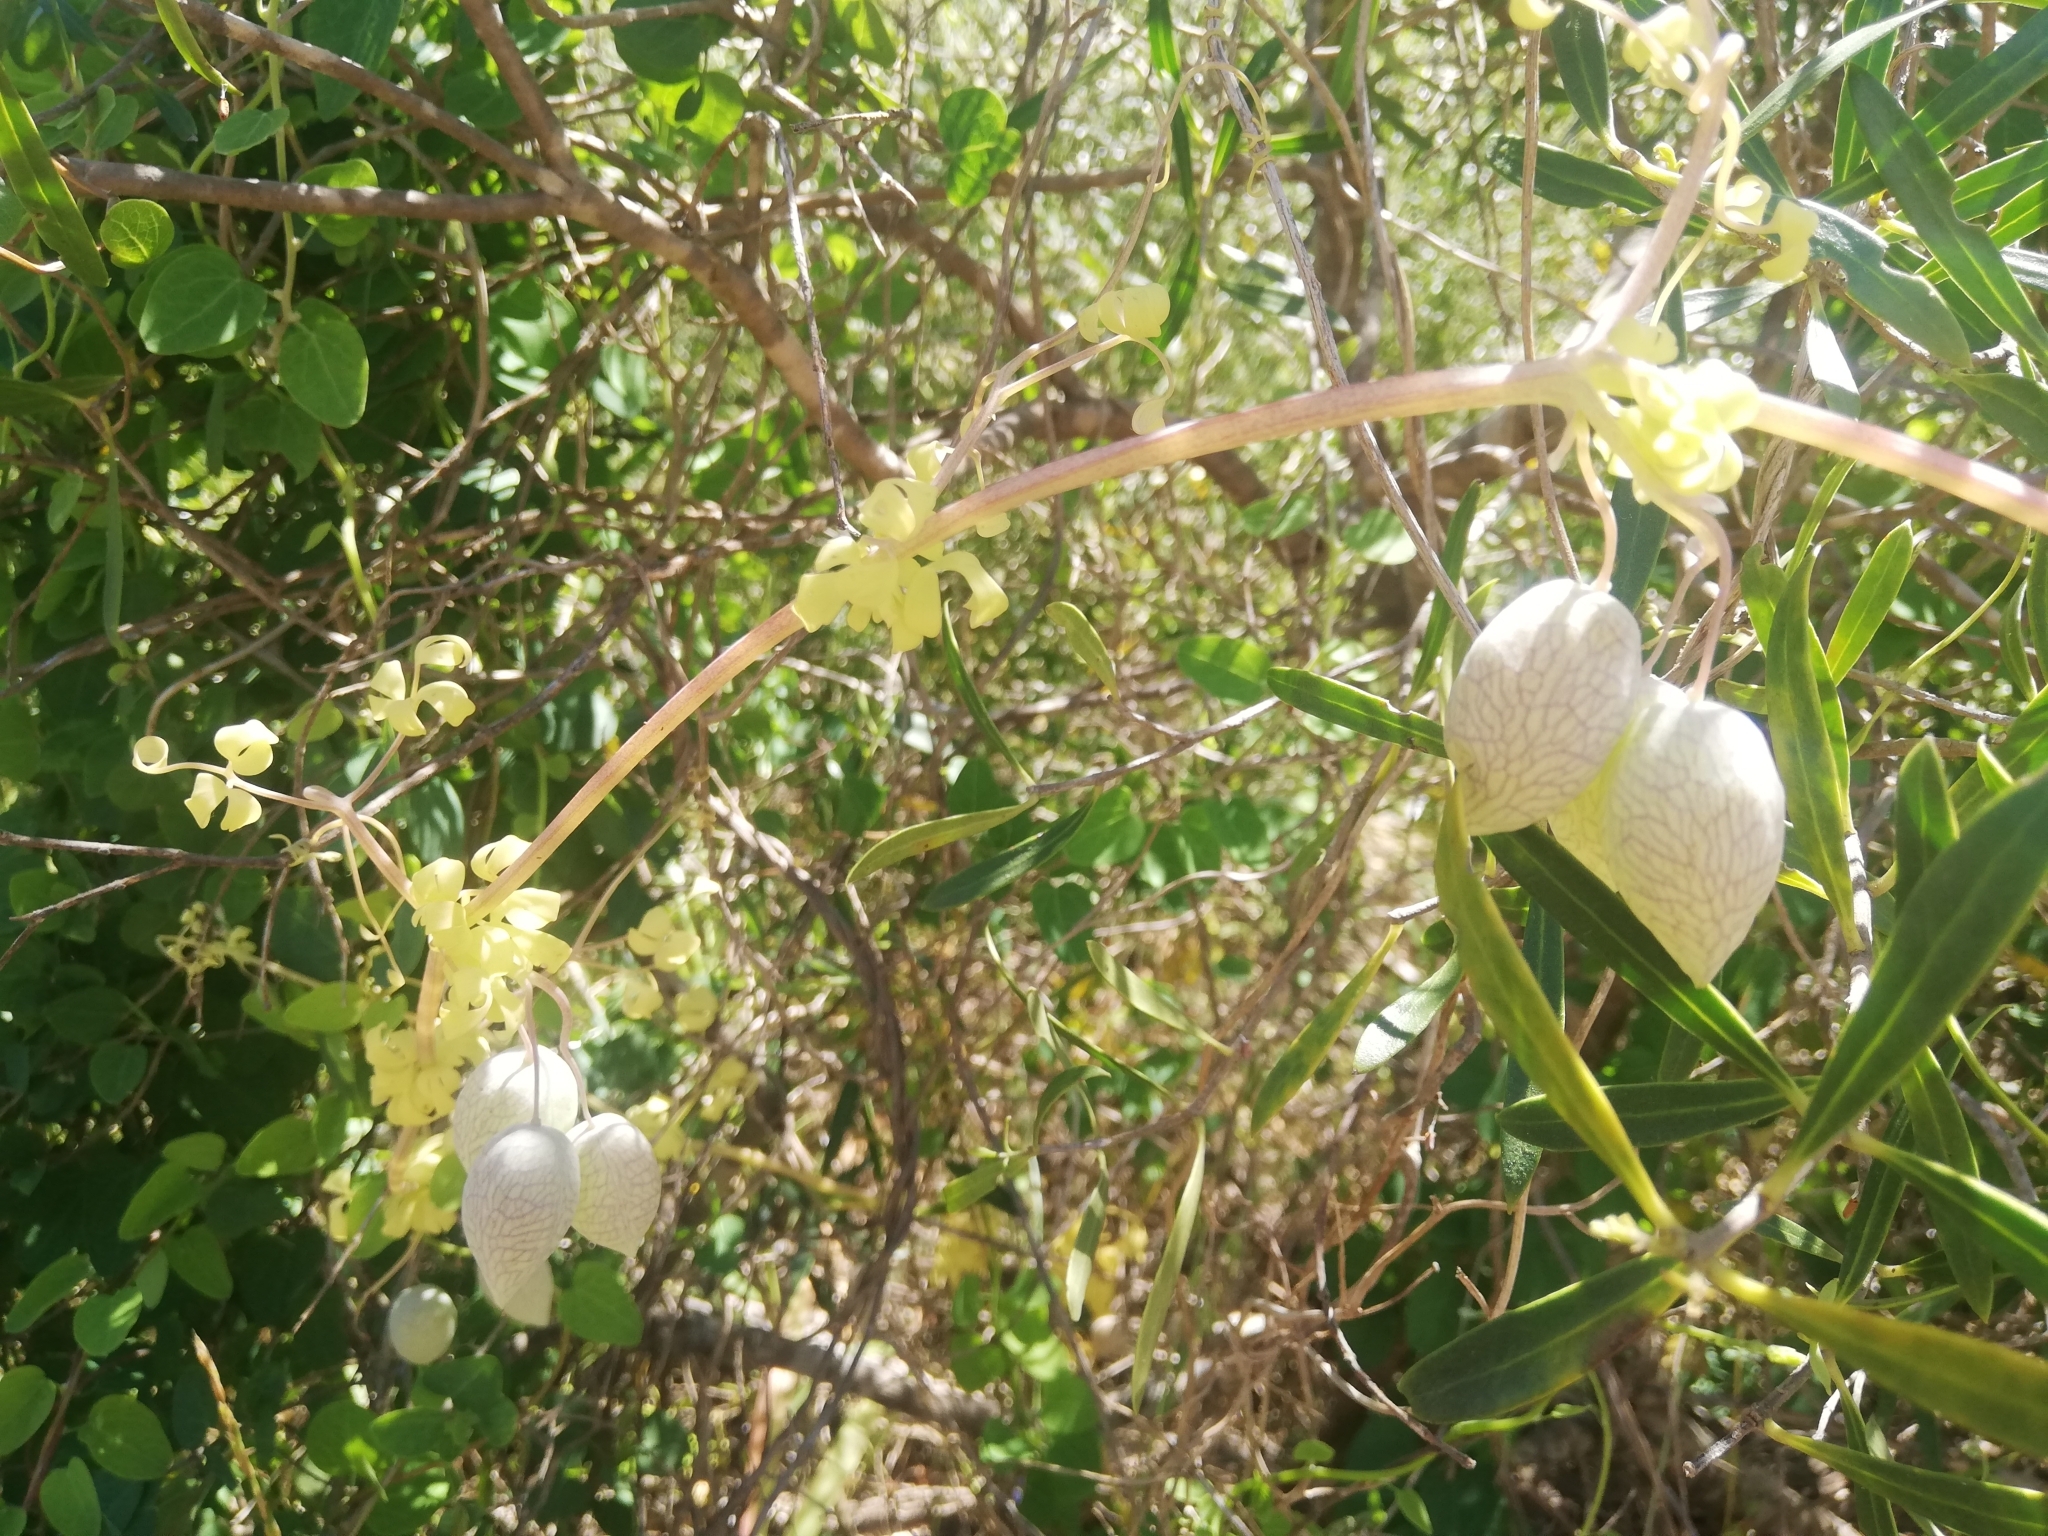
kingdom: Plantae
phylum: Tracheophyta
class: Magnoliopsida
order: Ranunculales
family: Papaveraceae
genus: Cysticapnos
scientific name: Cysticapnos vesicaria
